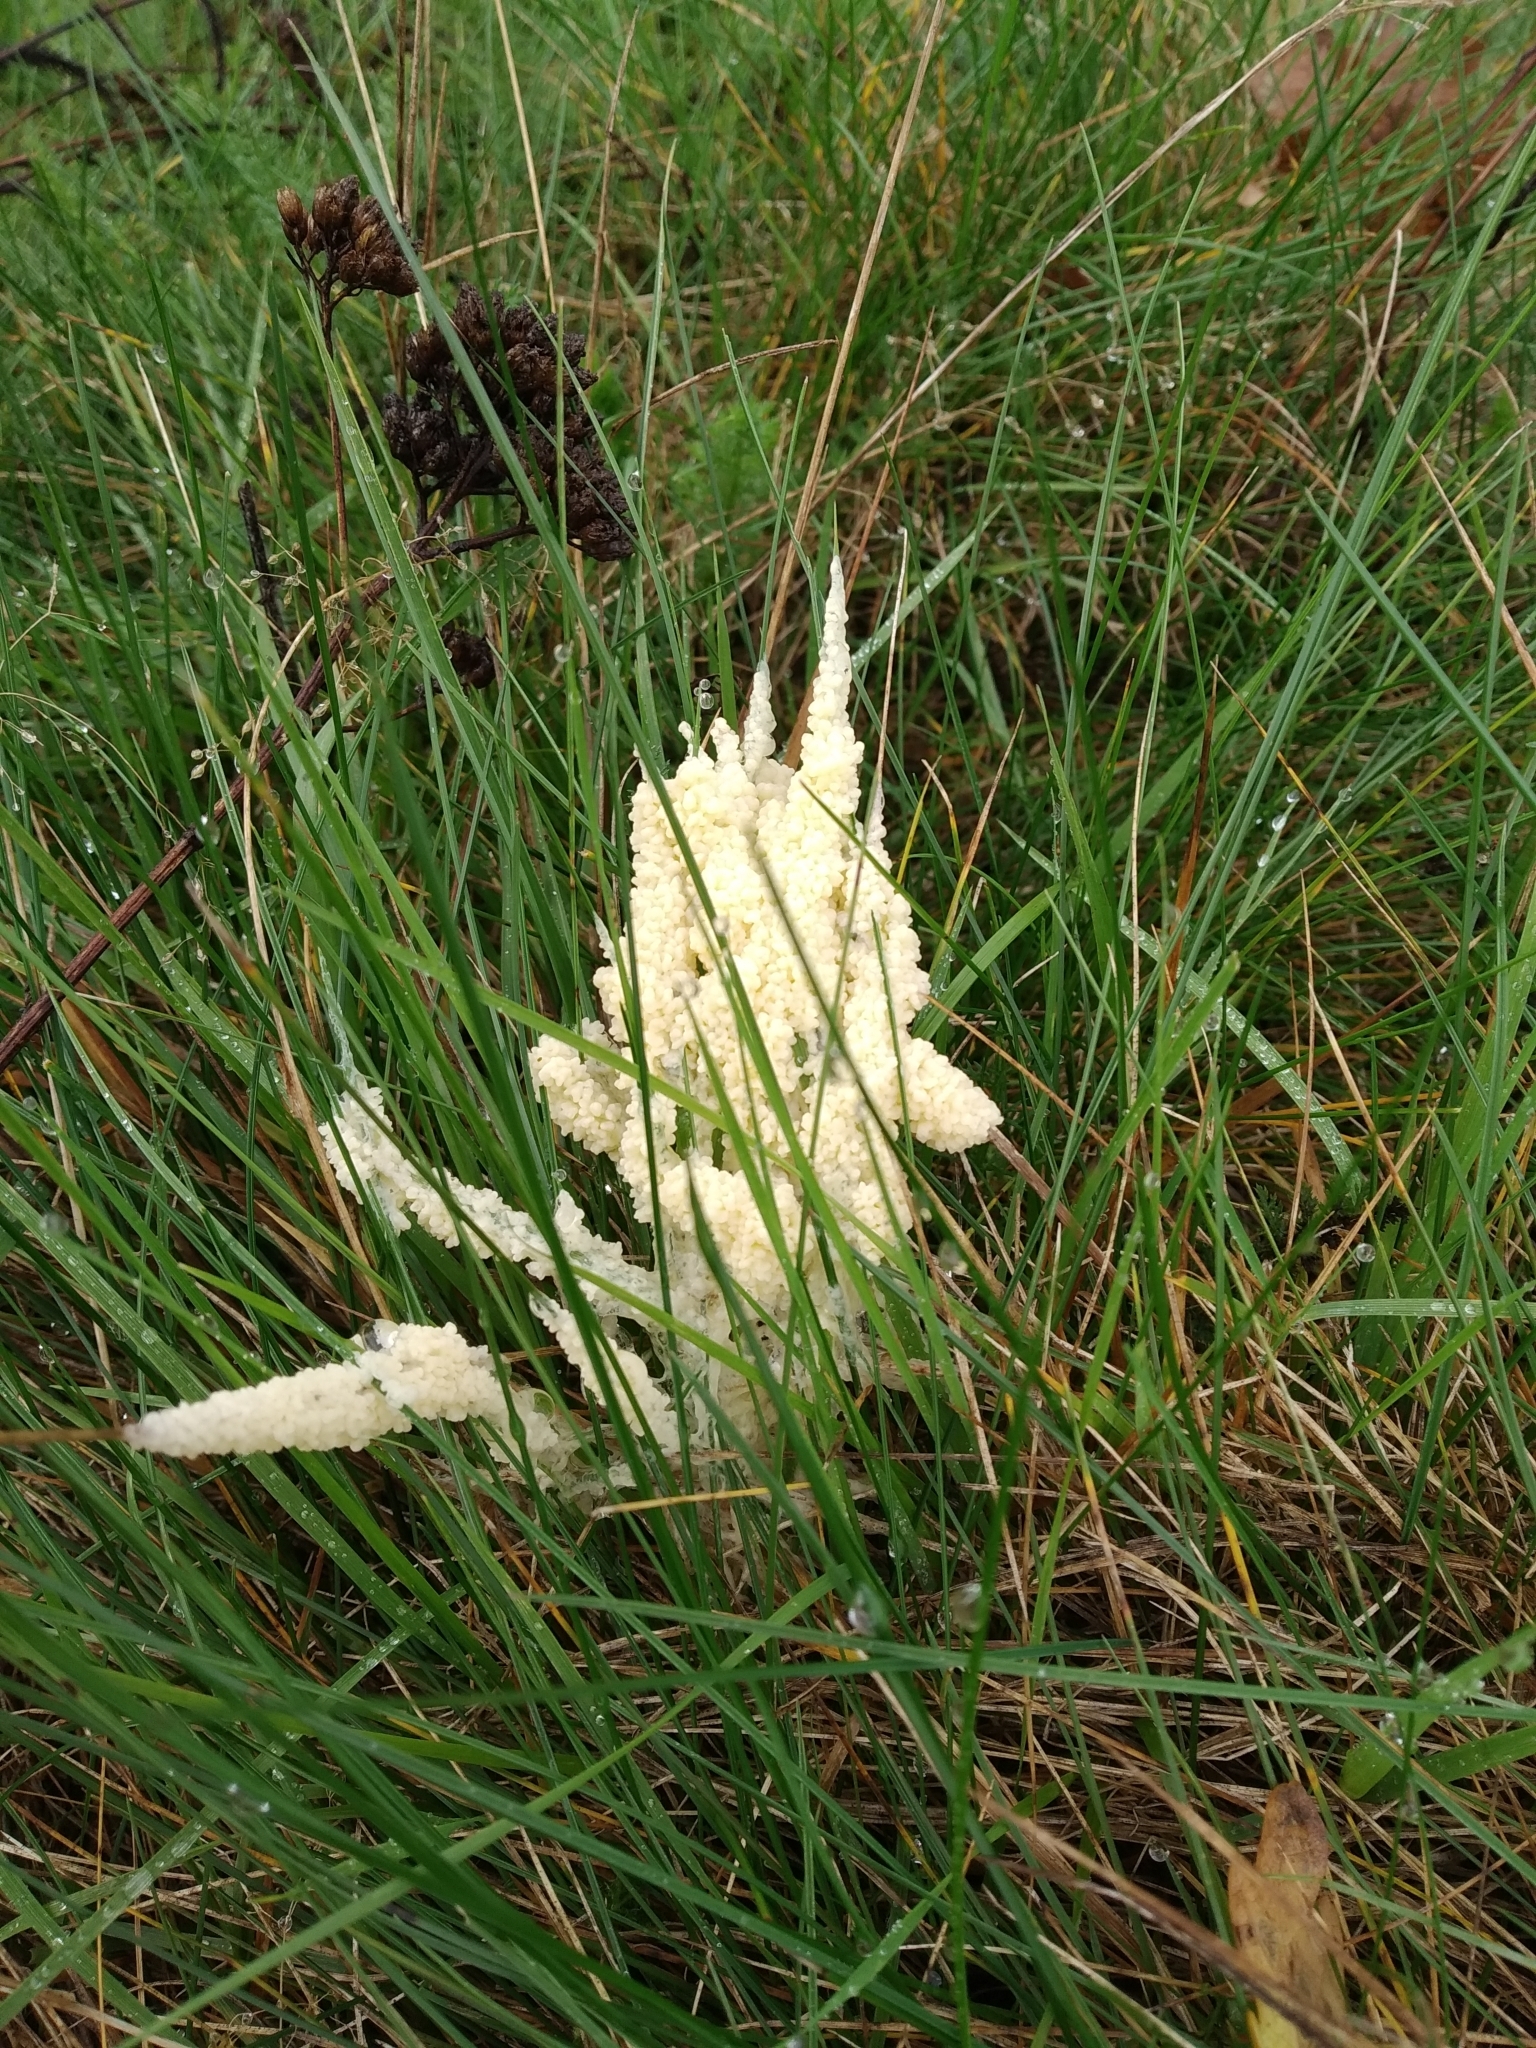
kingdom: Protozoa
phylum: Mycetozoa
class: Myxomycetes
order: Physarales
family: Physaraceae
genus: Didymium
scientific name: Didymium
